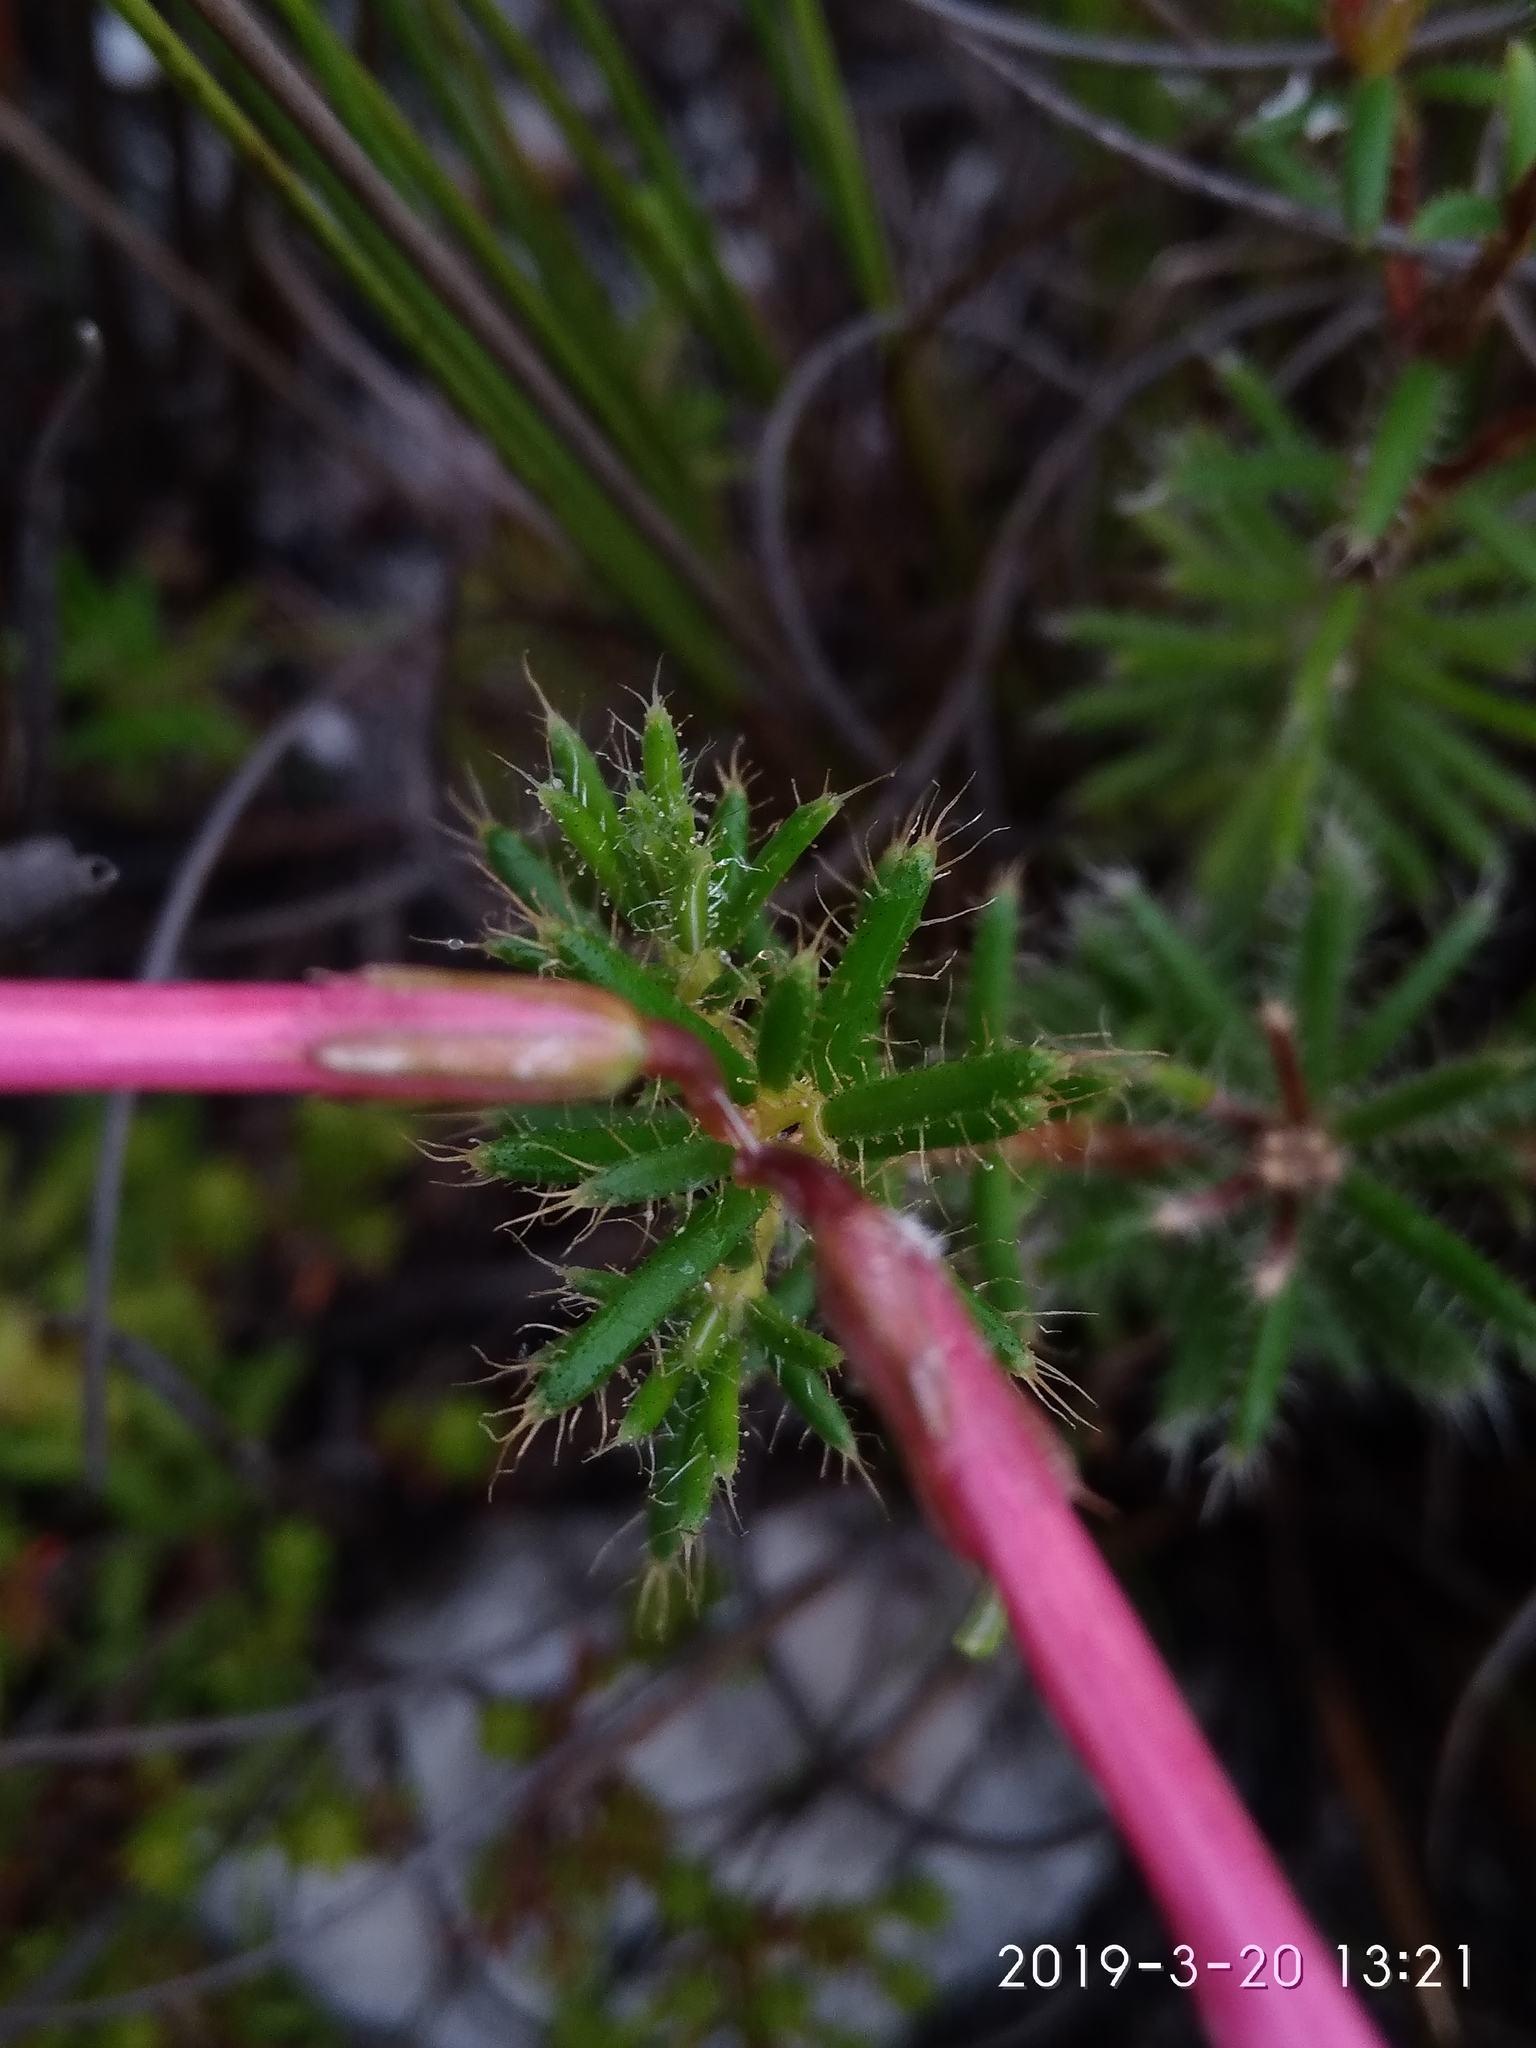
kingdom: Plantae
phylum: Tracheophyta
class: Magnoliopsida
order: Ericales
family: Ericaceae
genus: Erica
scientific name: Erica embothriifolia
